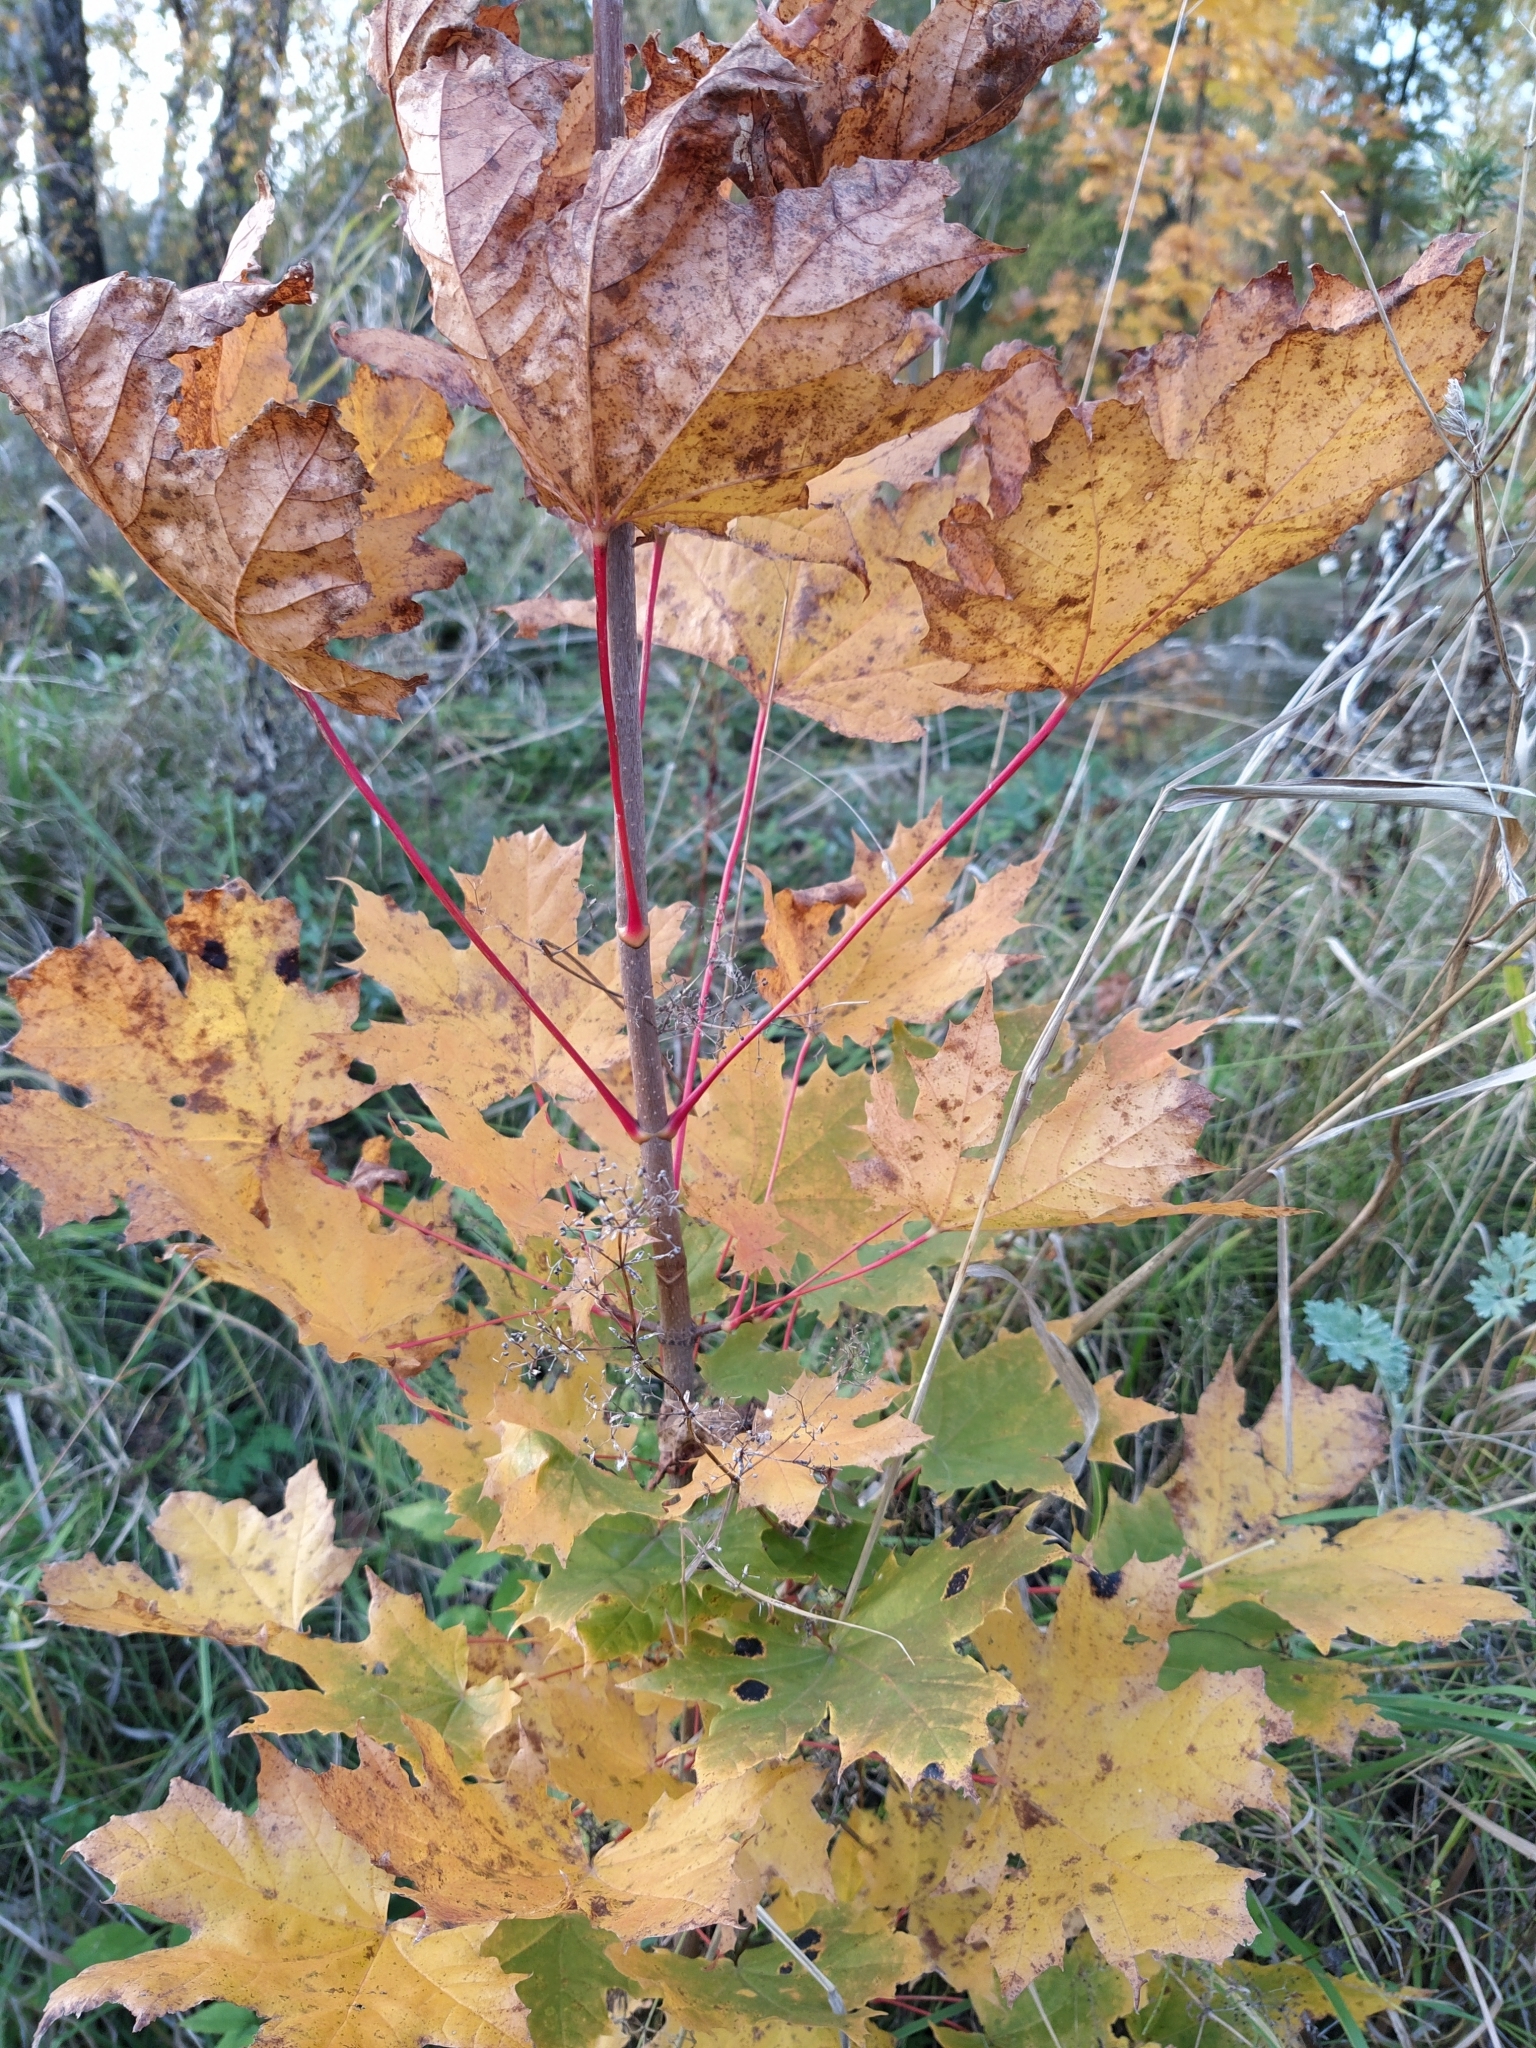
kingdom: Plantae
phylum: Tracheophyta
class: Magnoliopsida
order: Sapindales
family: Sapindaceae
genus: Acer
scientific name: Acer platanoides
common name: Norway maple
